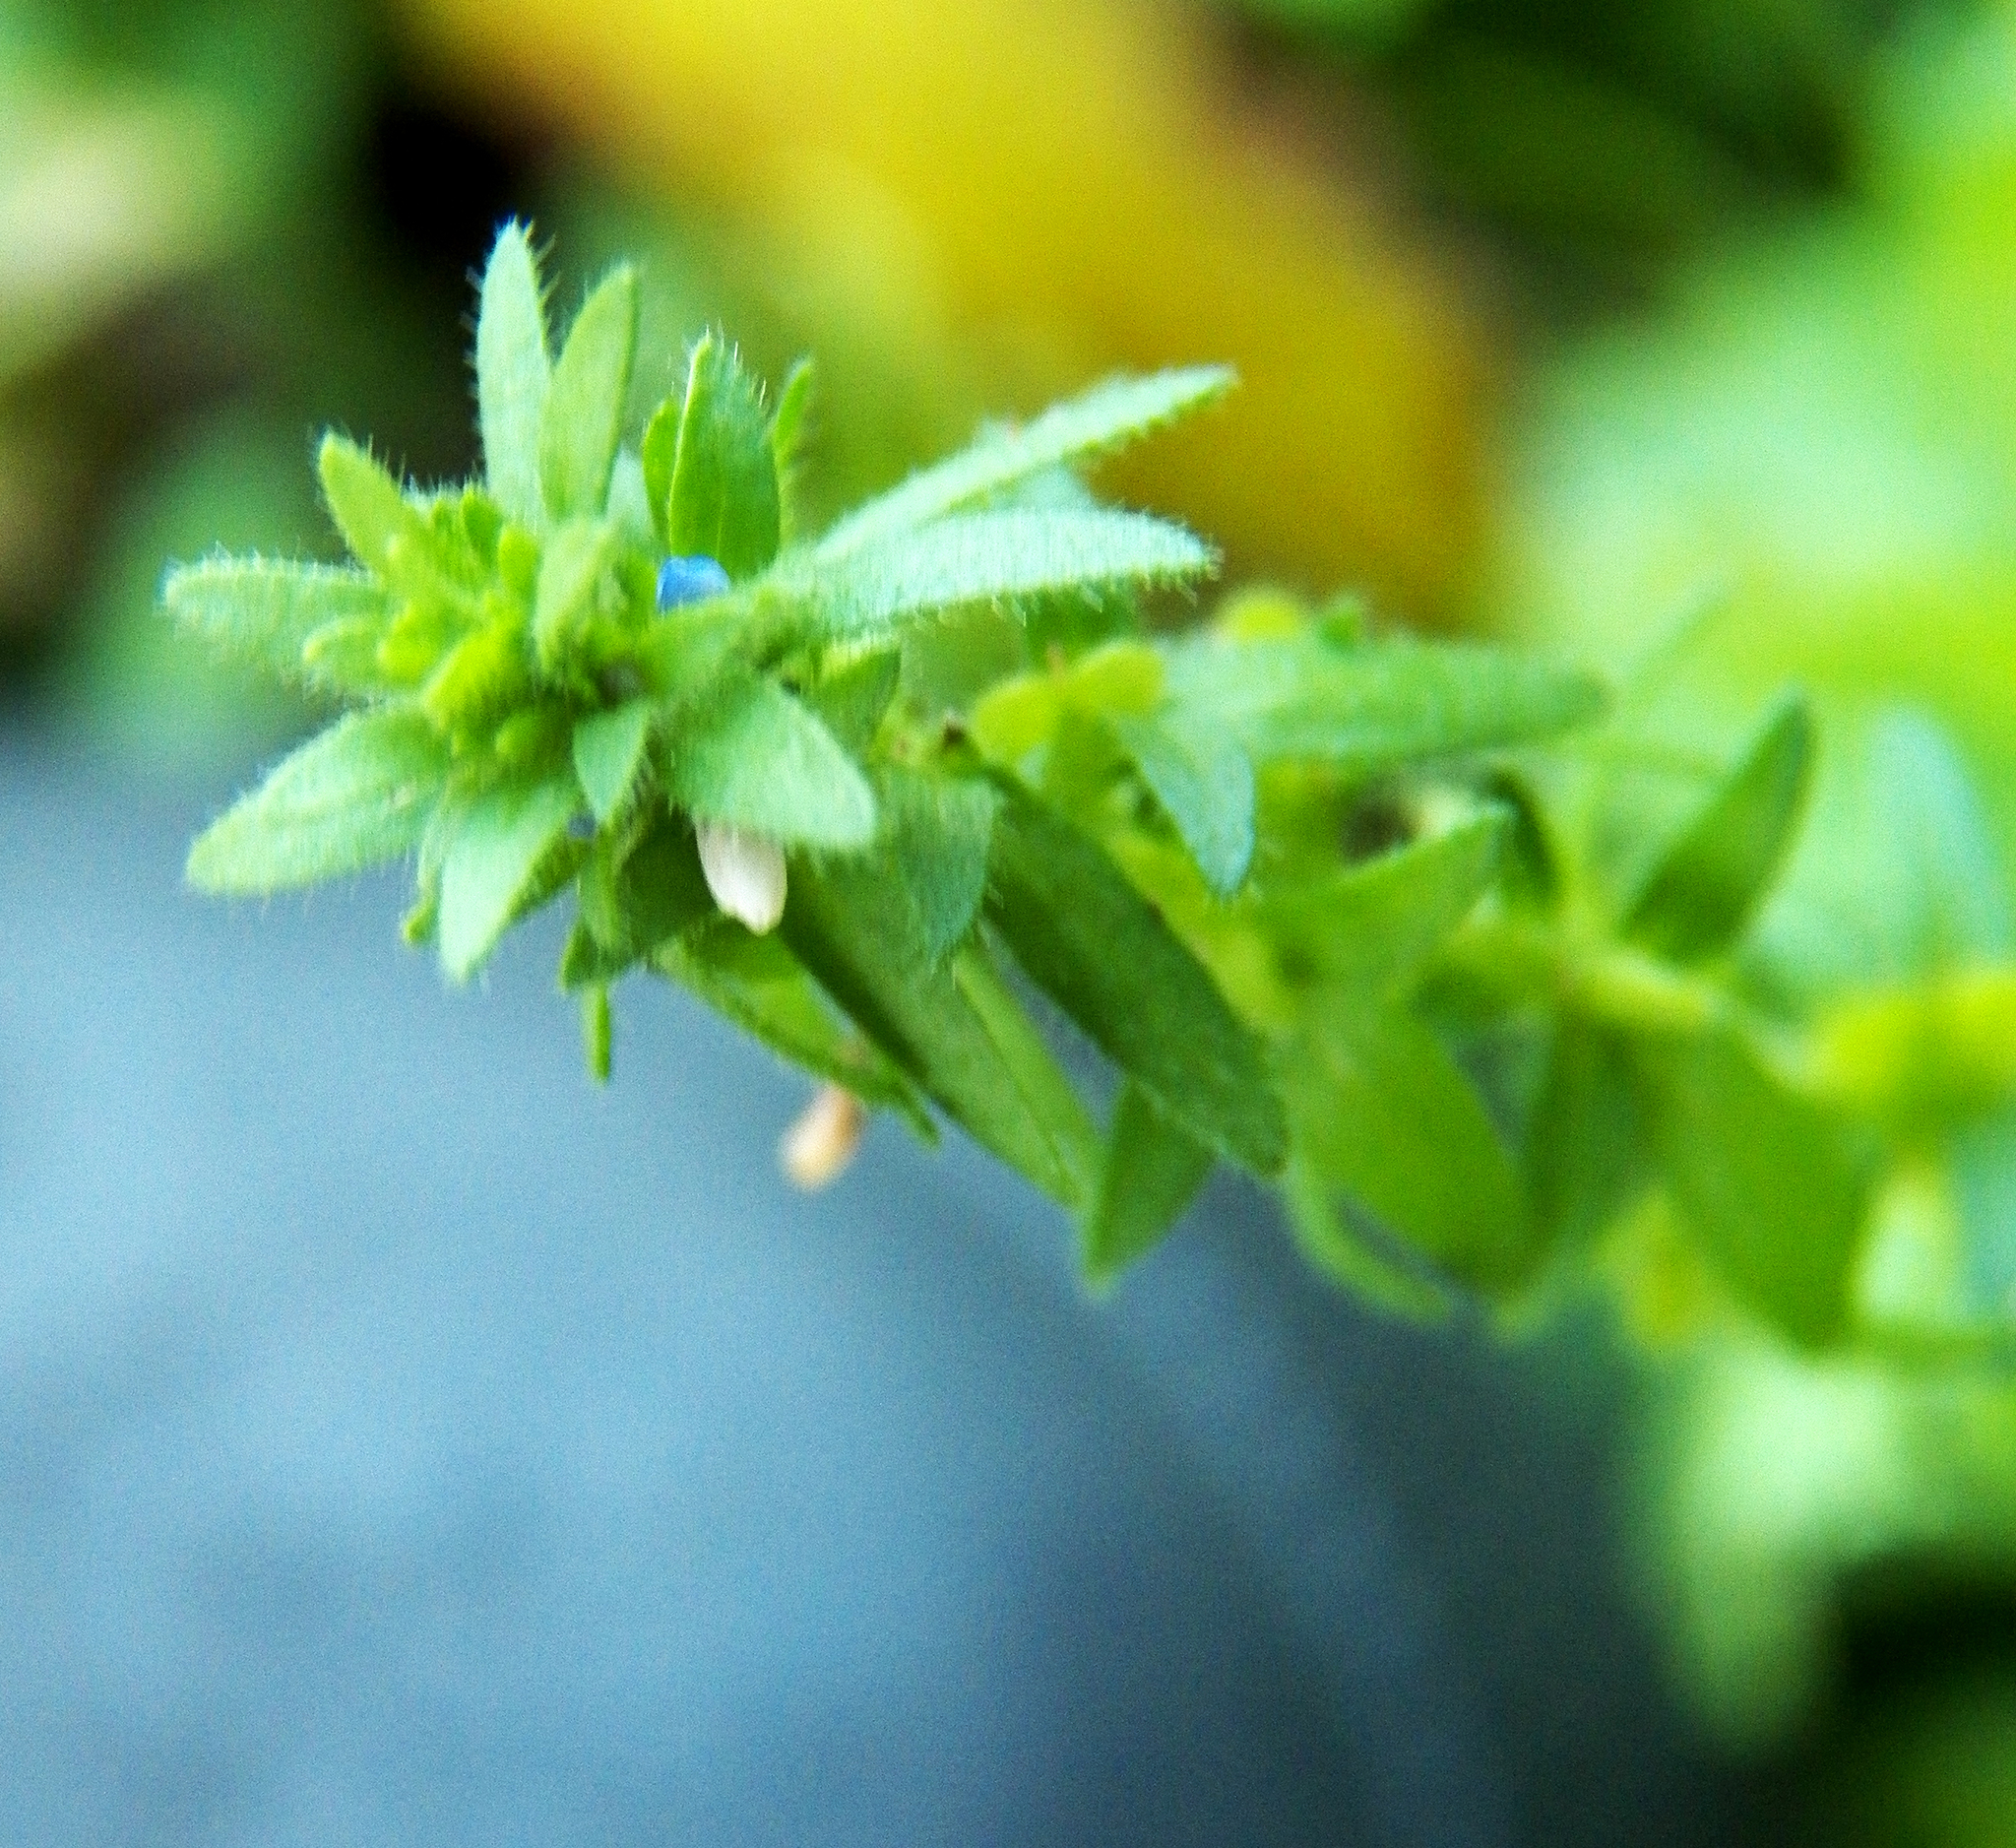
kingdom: Plantae
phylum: Tracheophyta
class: Magnoliopsida
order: Lamiales
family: Plantaginaceae
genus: Veronica
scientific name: Veronica arvensis
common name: Corn speedwell
